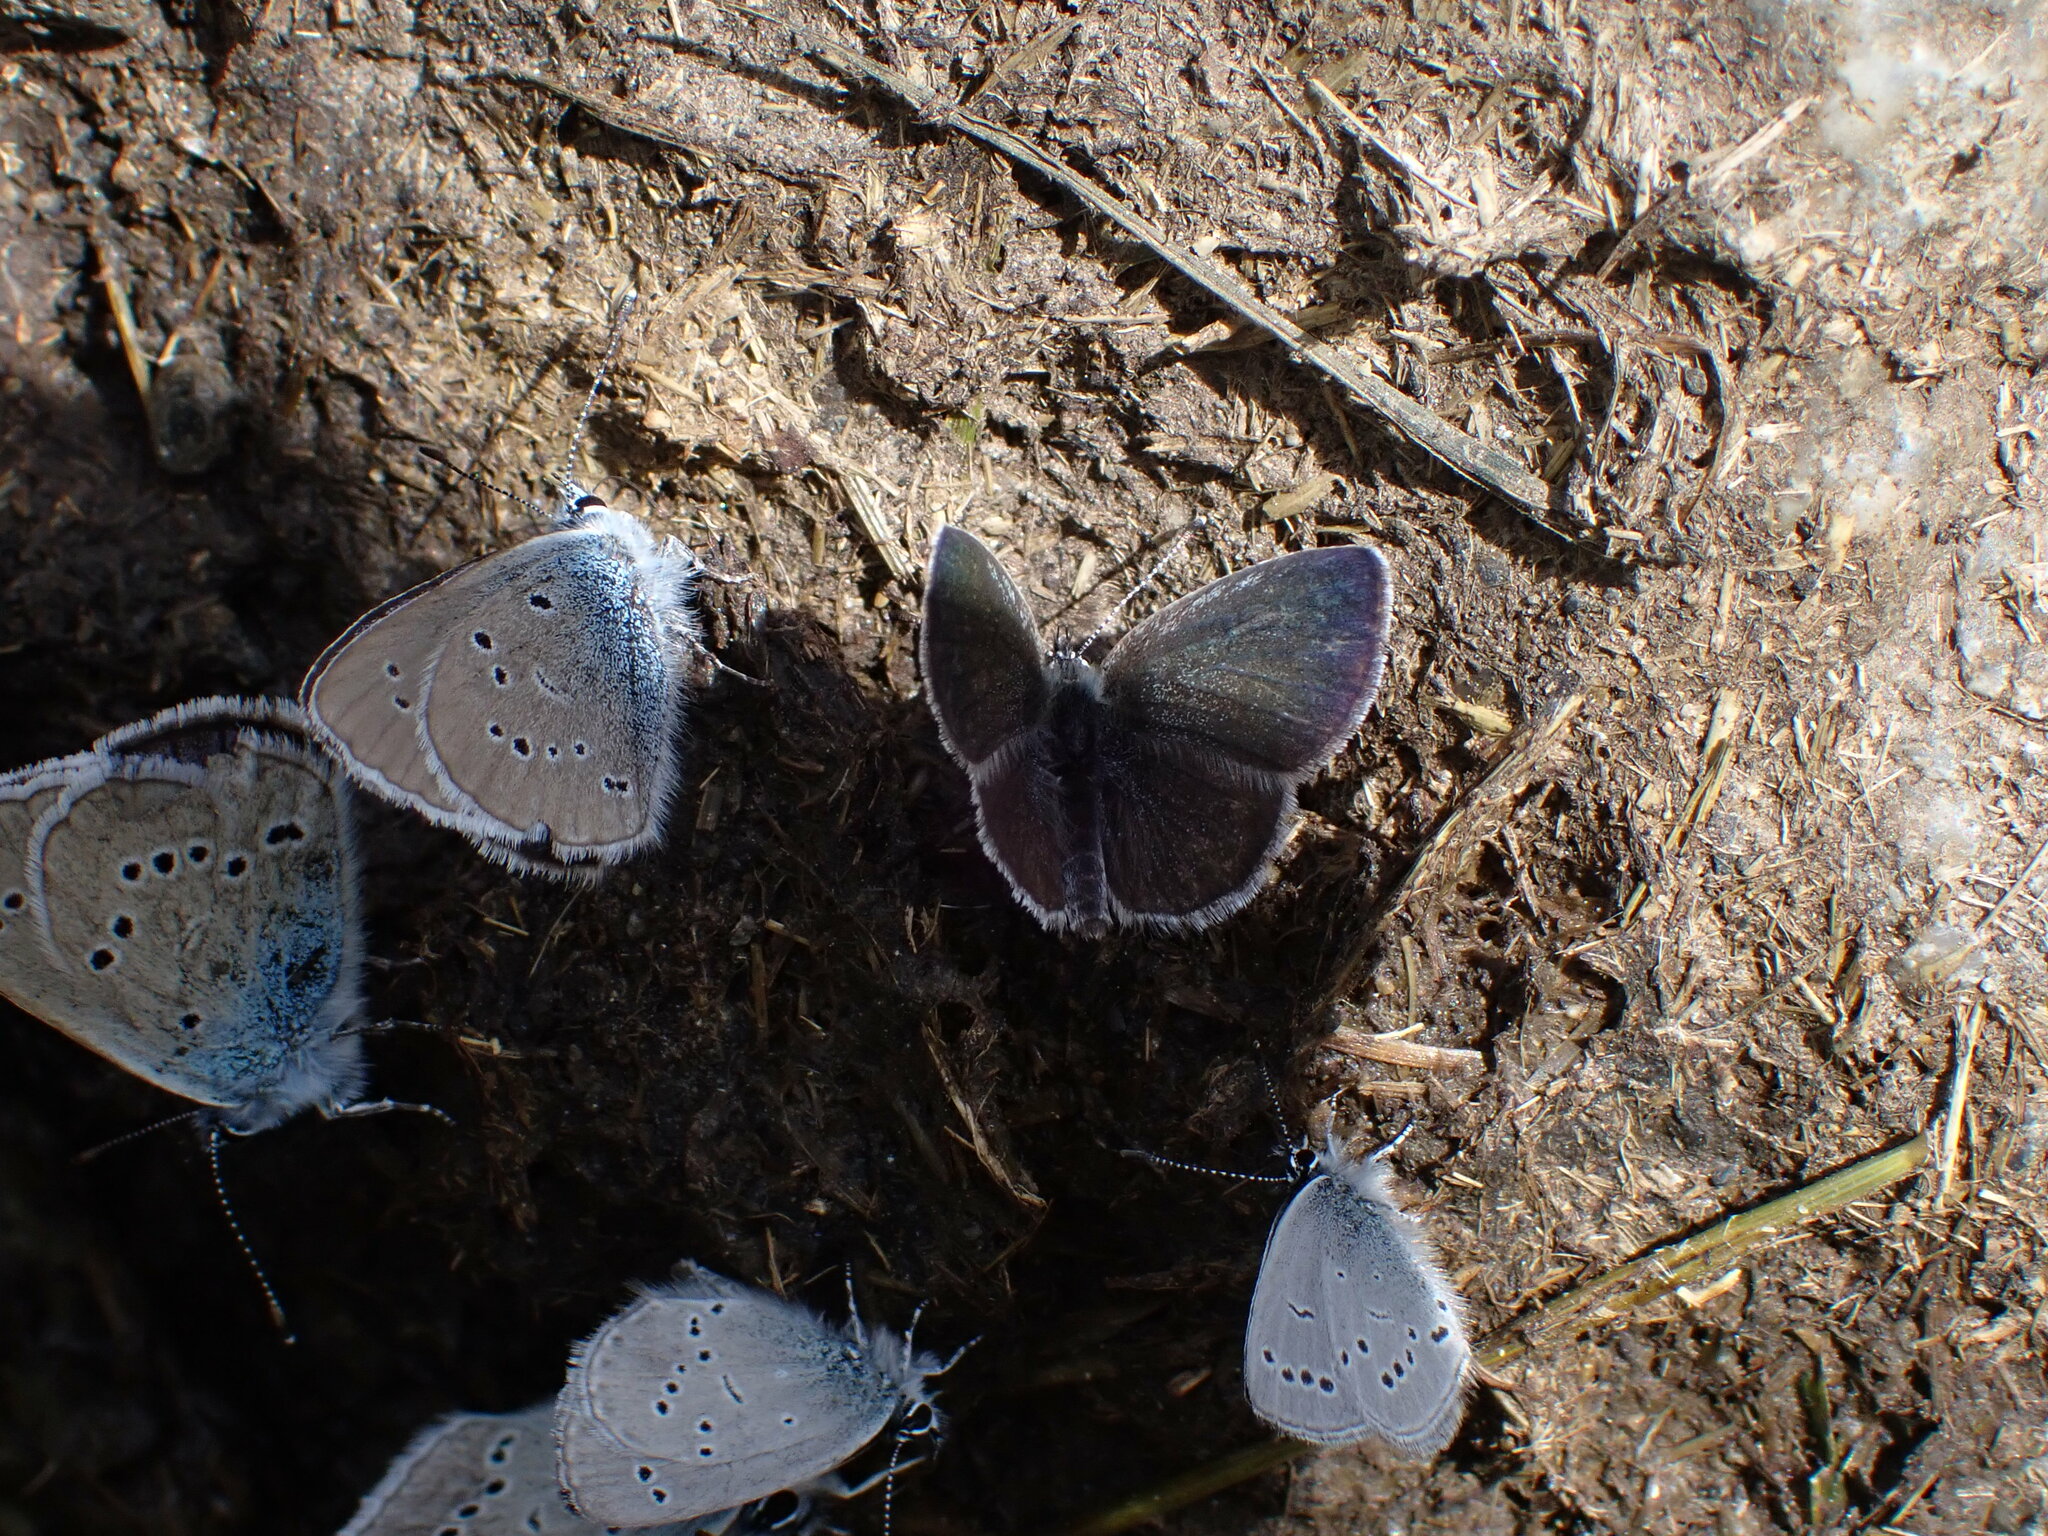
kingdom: Animalia
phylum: Arthropoda
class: Insecta
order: Lepidoptera
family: Lycaenidae
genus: Cyaniris
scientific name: Cyaniris semiargus
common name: Mazarine blue
